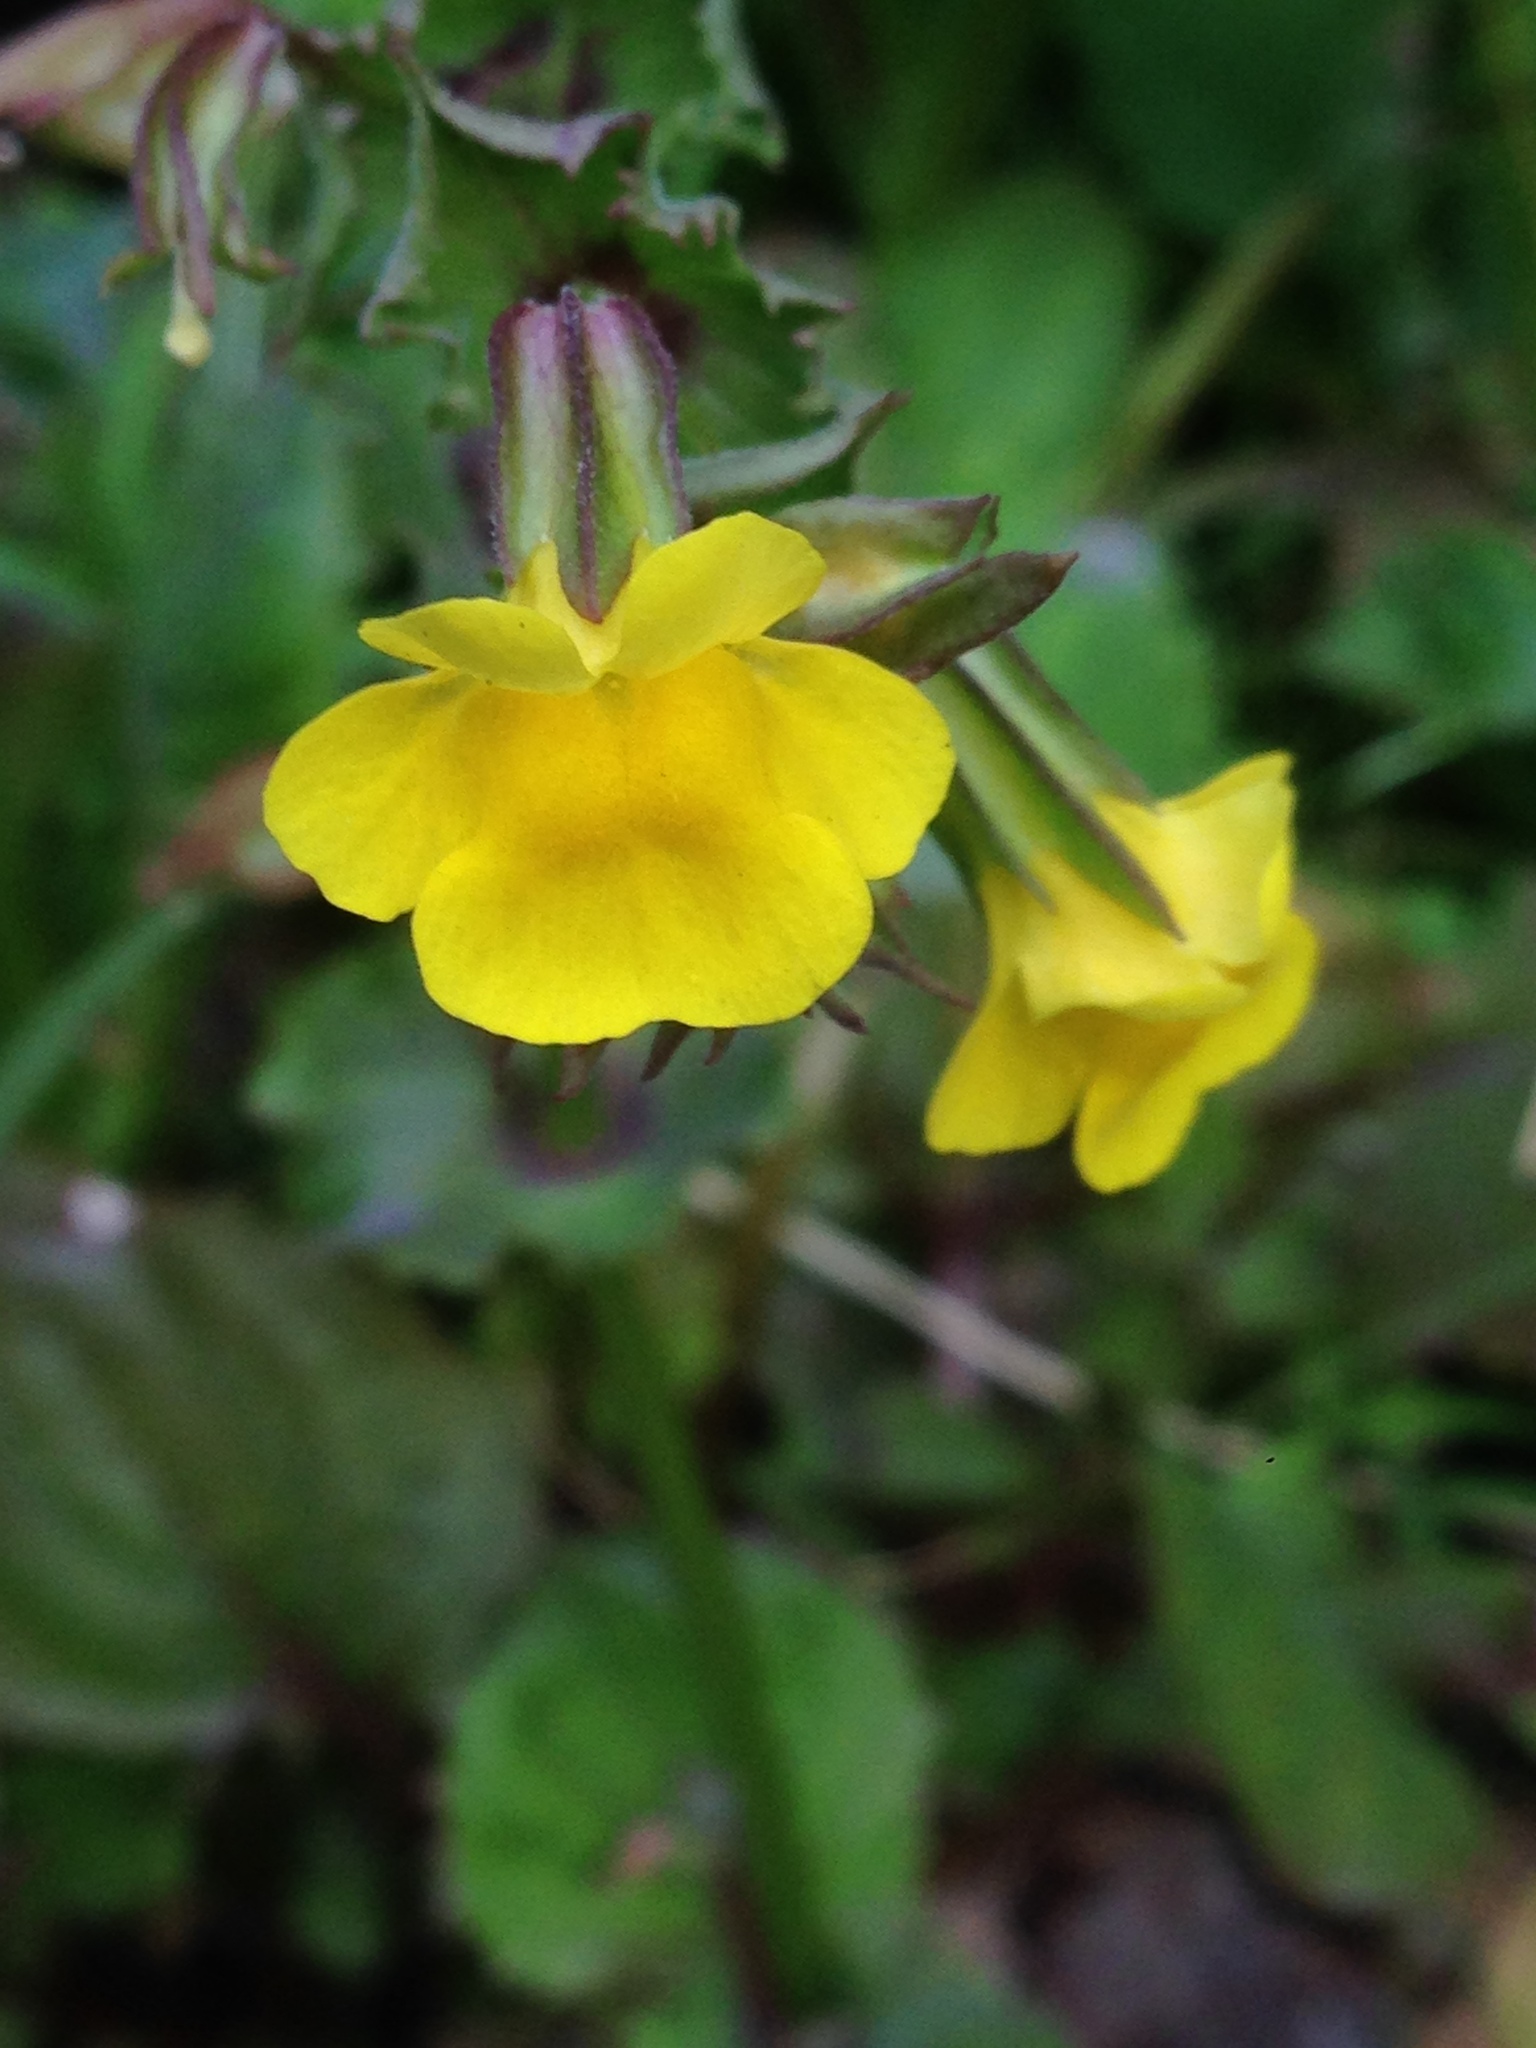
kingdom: Plantae
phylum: Tracheophyta
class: Magnoliopsida
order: Lamiales
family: Phrymaceae
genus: Erythranthe
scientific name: Erythranthe guttata
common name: Monkeyflower
